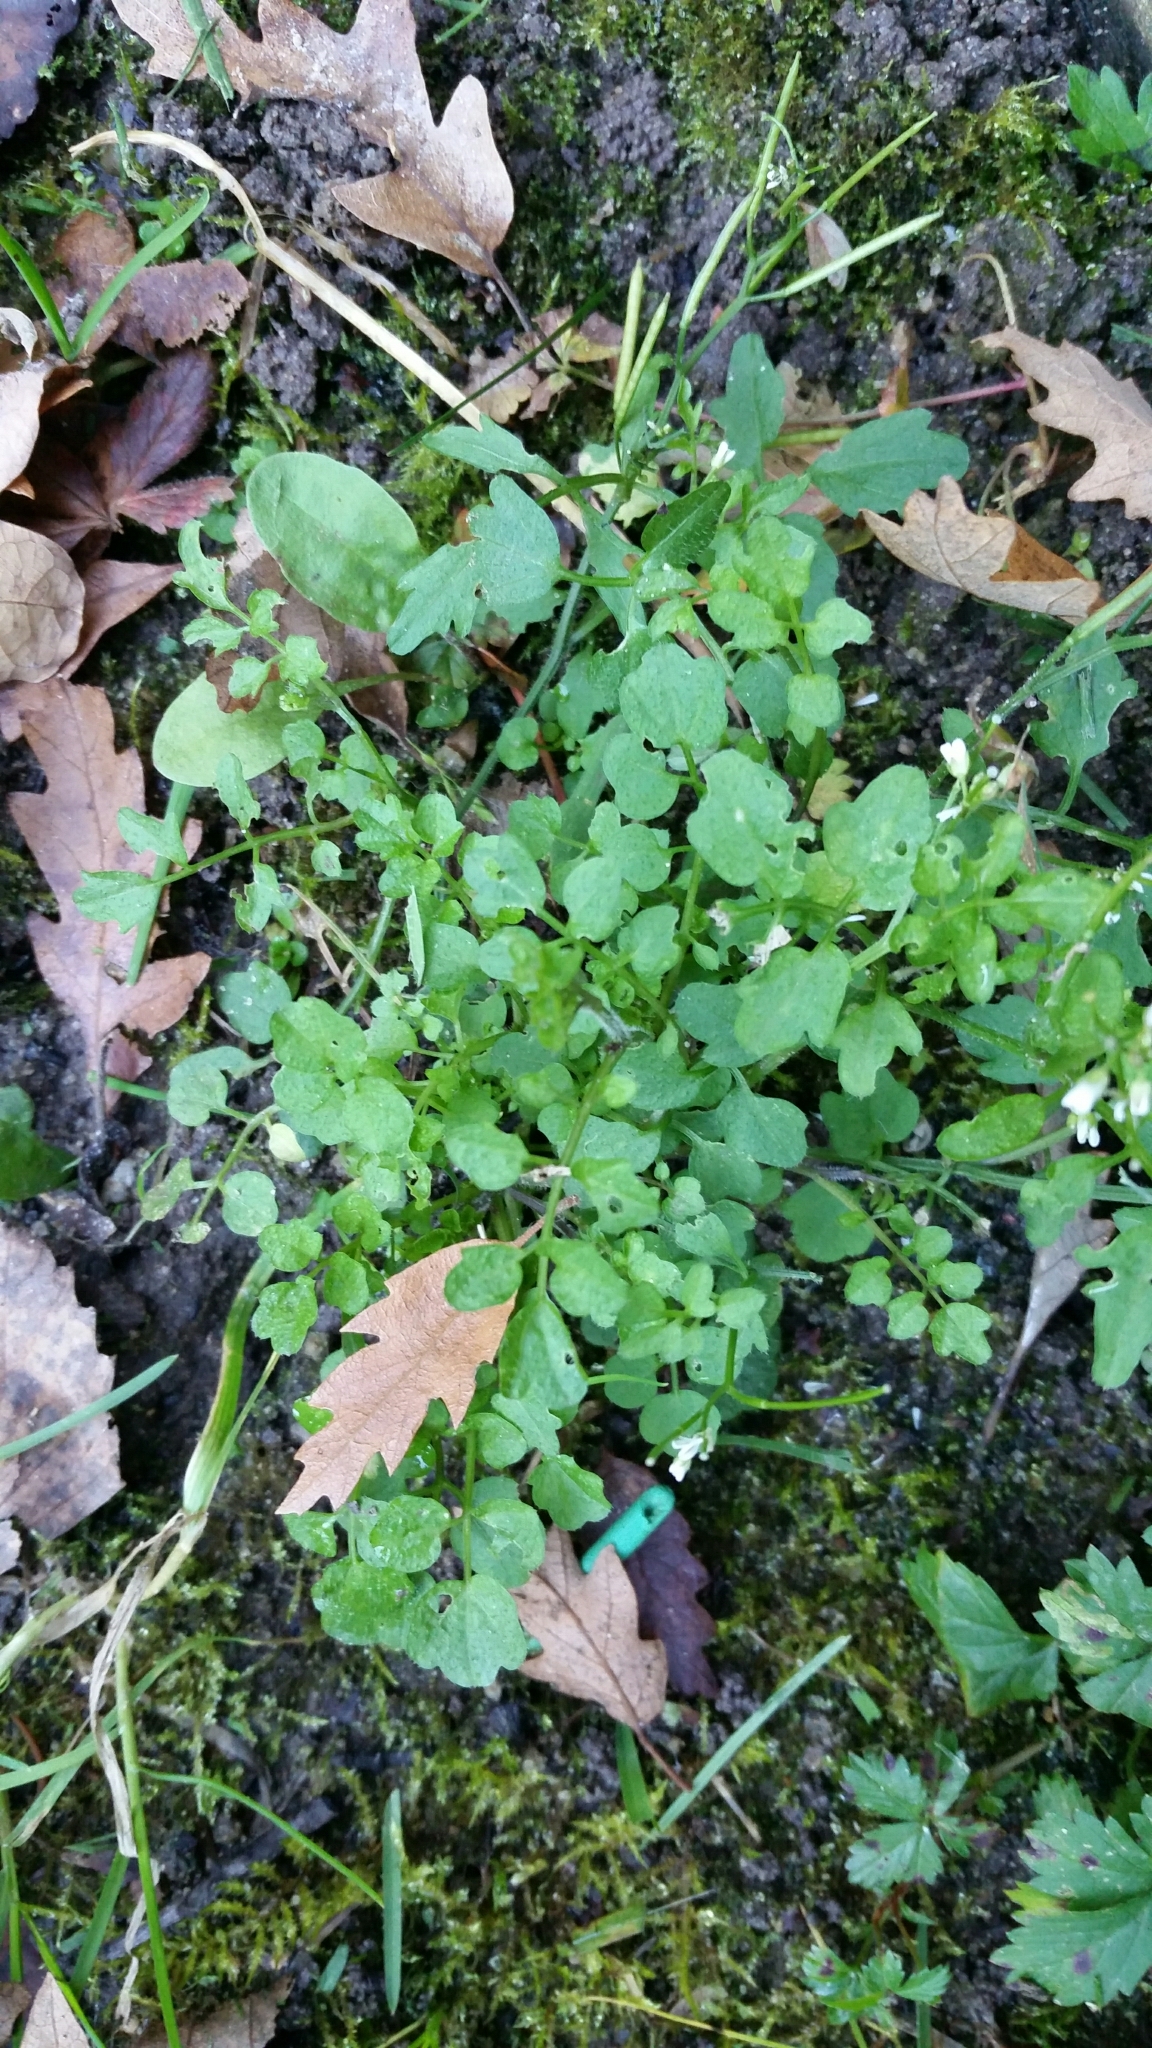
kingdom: Plantae
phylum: Tracheophyta
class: Magnoliopsida
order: Brassicales
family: Brassicaceae
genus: Cardamine
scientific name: Cardamine flexuosa
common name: Woodland bittercress
